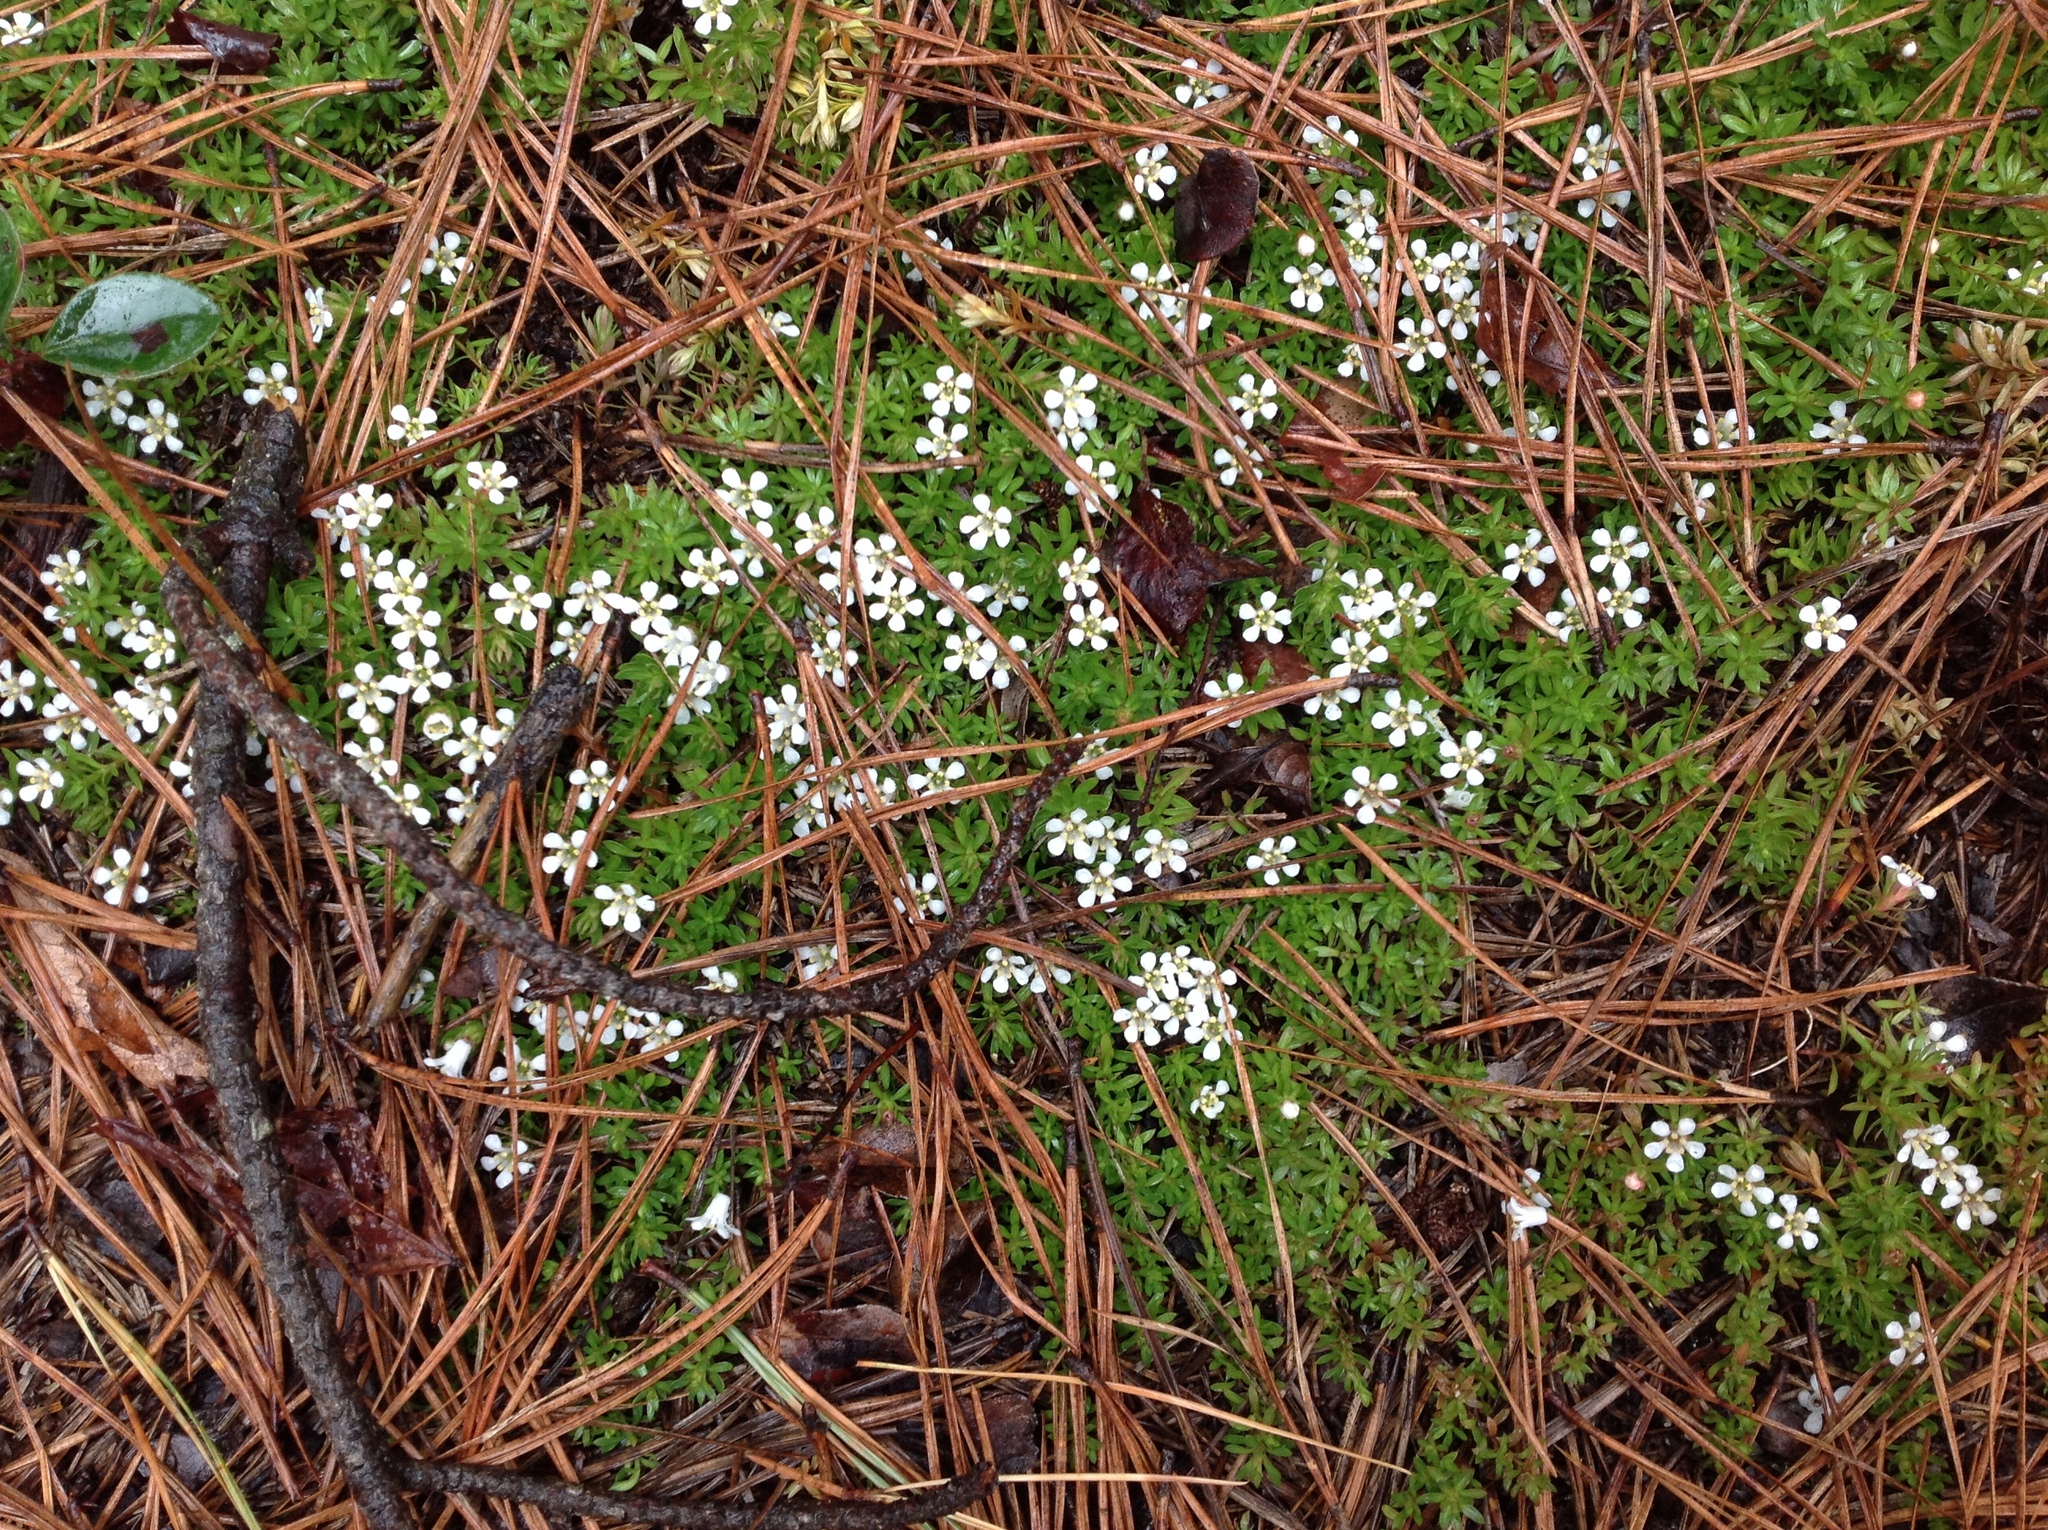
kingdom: Plantae
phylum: Tracheophyta
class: Magnoliopsida
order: Ericales
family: Diapensiaceae
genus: Pyxidanthera
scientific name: Pyxidanthera barbulata
